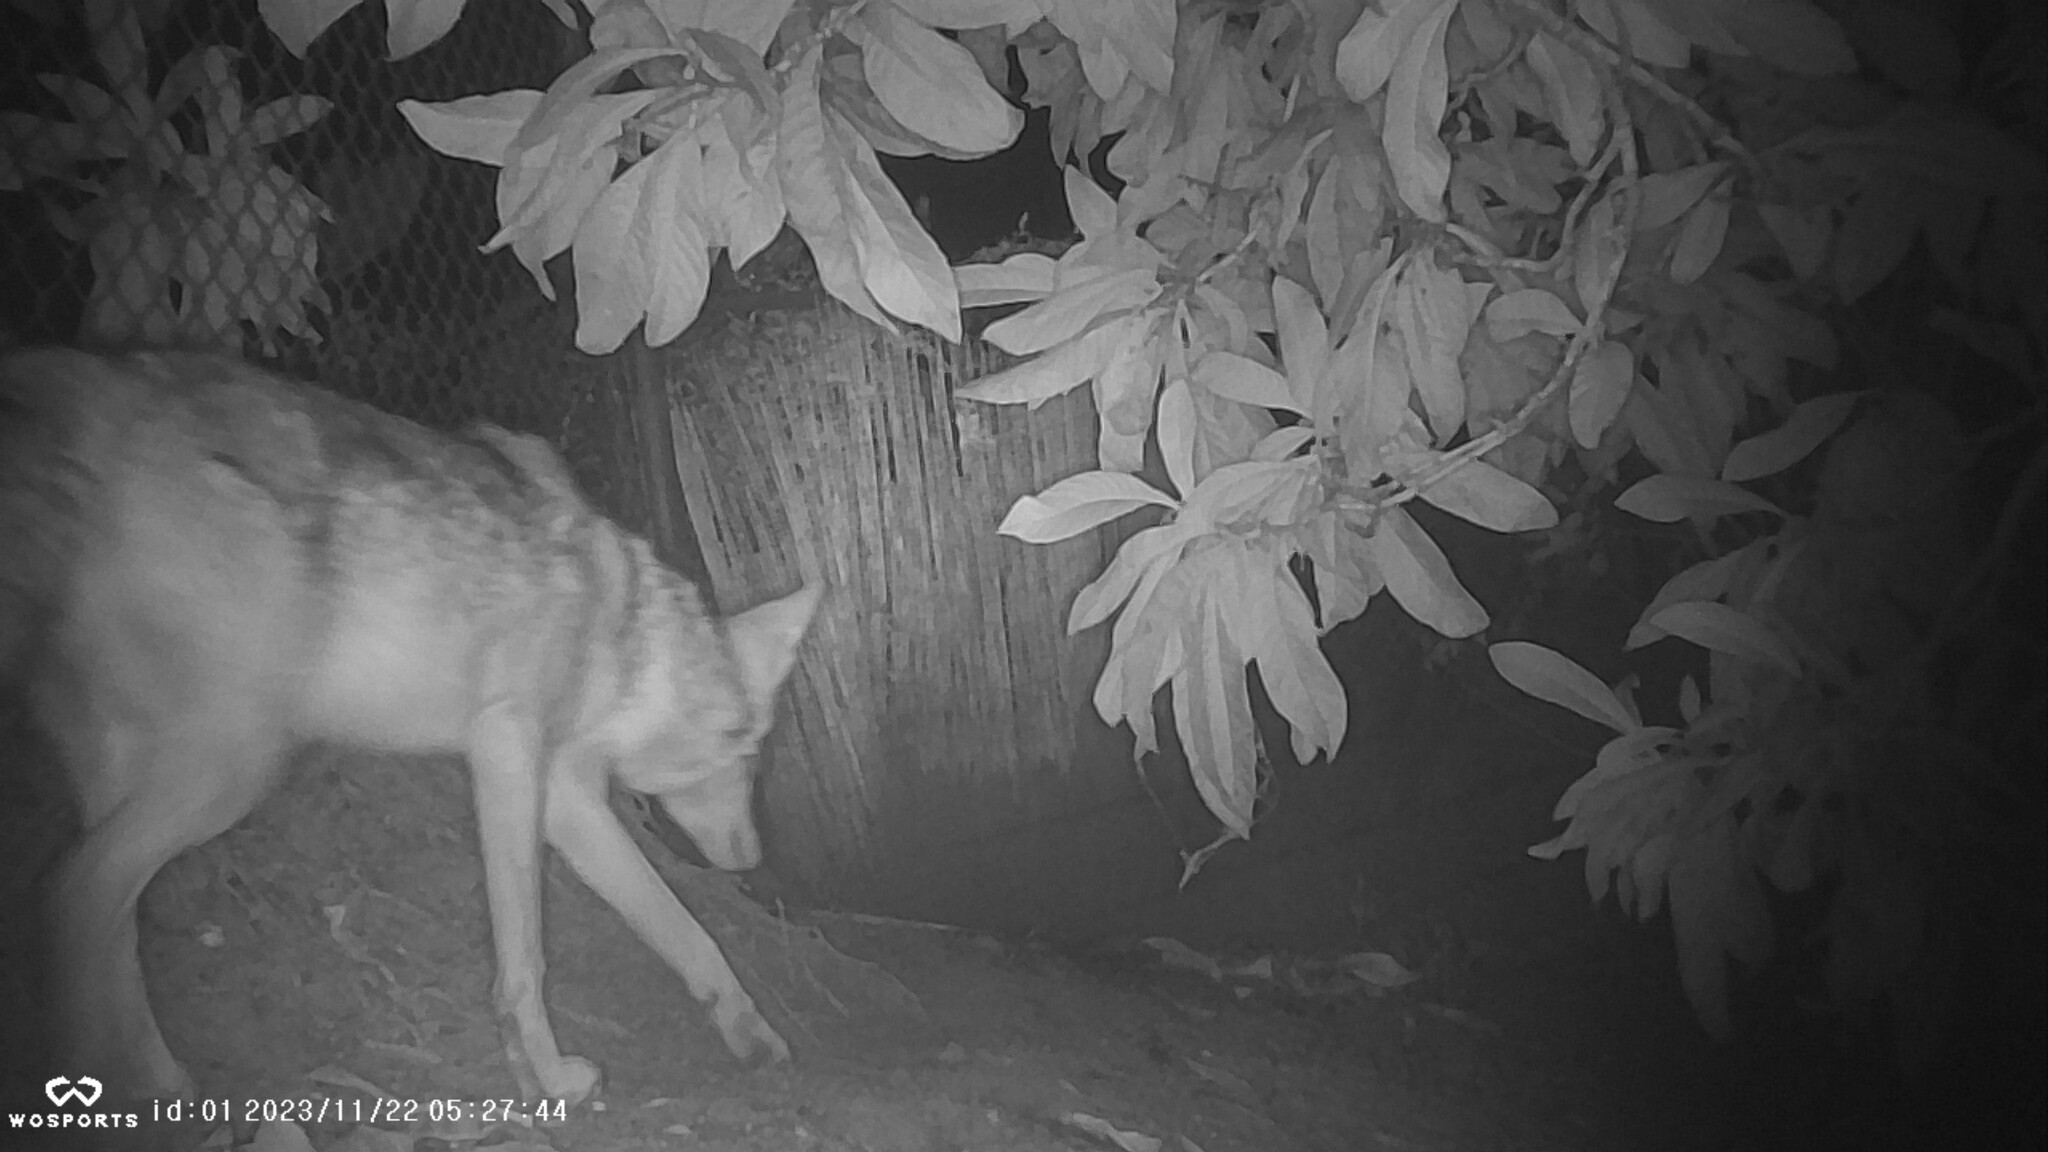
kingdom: Animalia
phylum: Chordata
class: Mammalia
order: Carnivora
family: Canidae
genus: Canis
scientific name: Canis latrans
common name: Coyote
